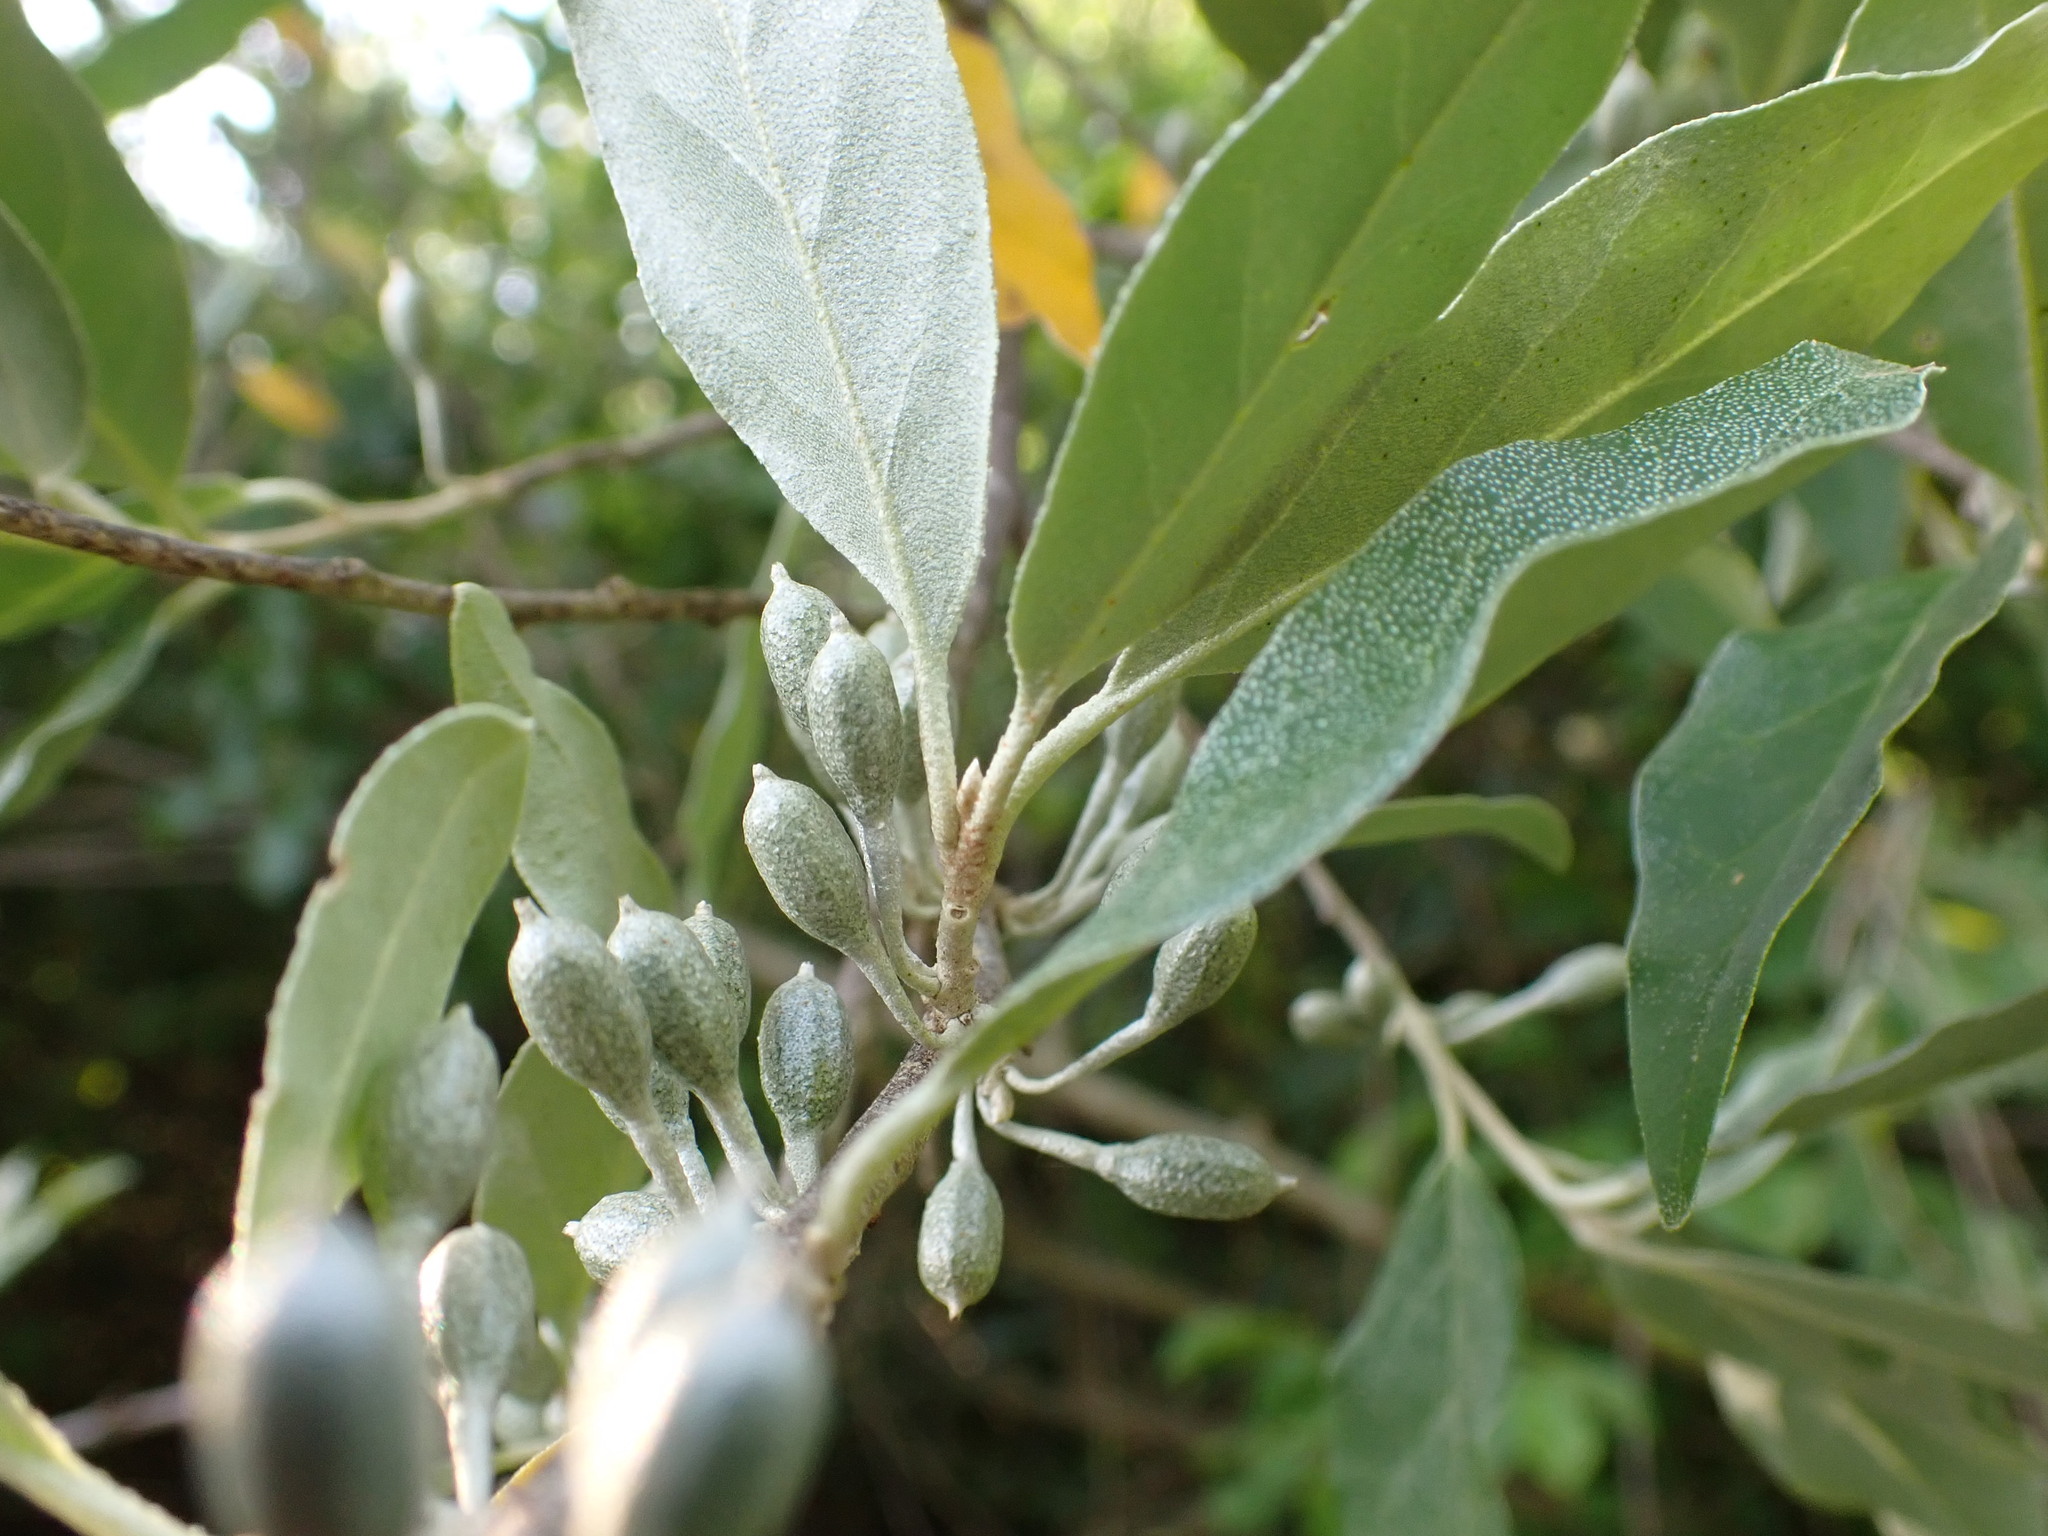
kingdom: Plantae
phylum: Tracheophyta
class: Magnoliopsida
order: Rosales
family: Elaeagnaceae
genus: Elaeagnus
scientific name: Elaeagnus umbellata
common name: Autumn olive
